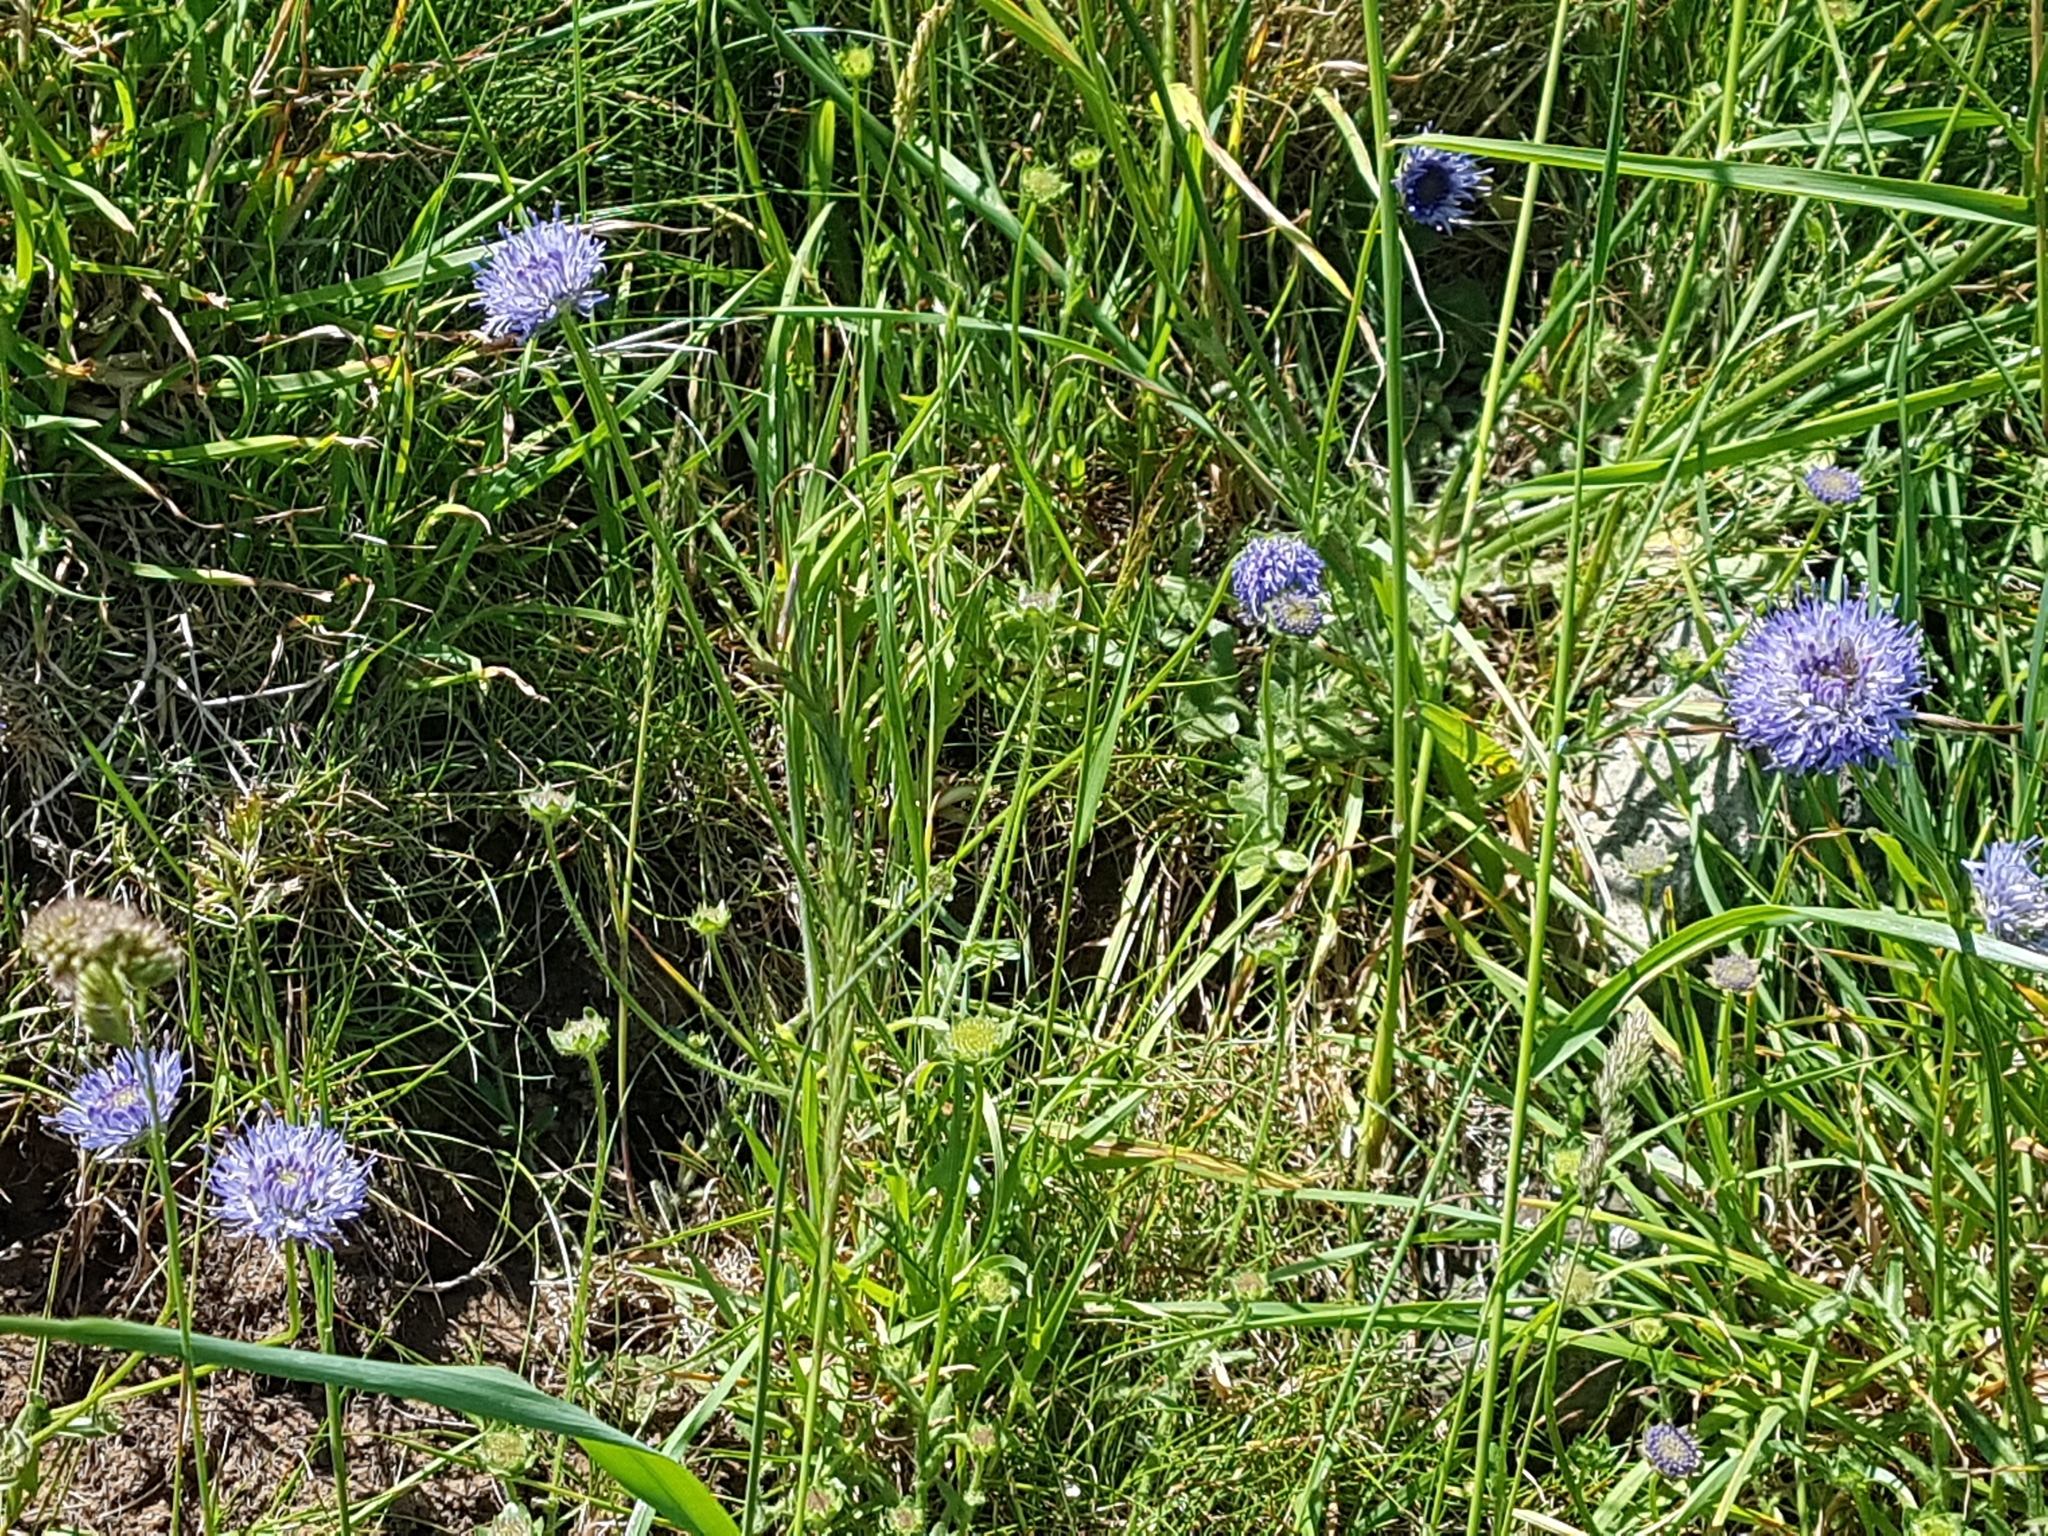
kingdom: Plantae
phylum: Tracheophyta
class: Magnoliopsida
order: Asterales
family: Campanulaceae
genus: Jasione
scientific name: Jasione montana
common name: Sheep's-bit
